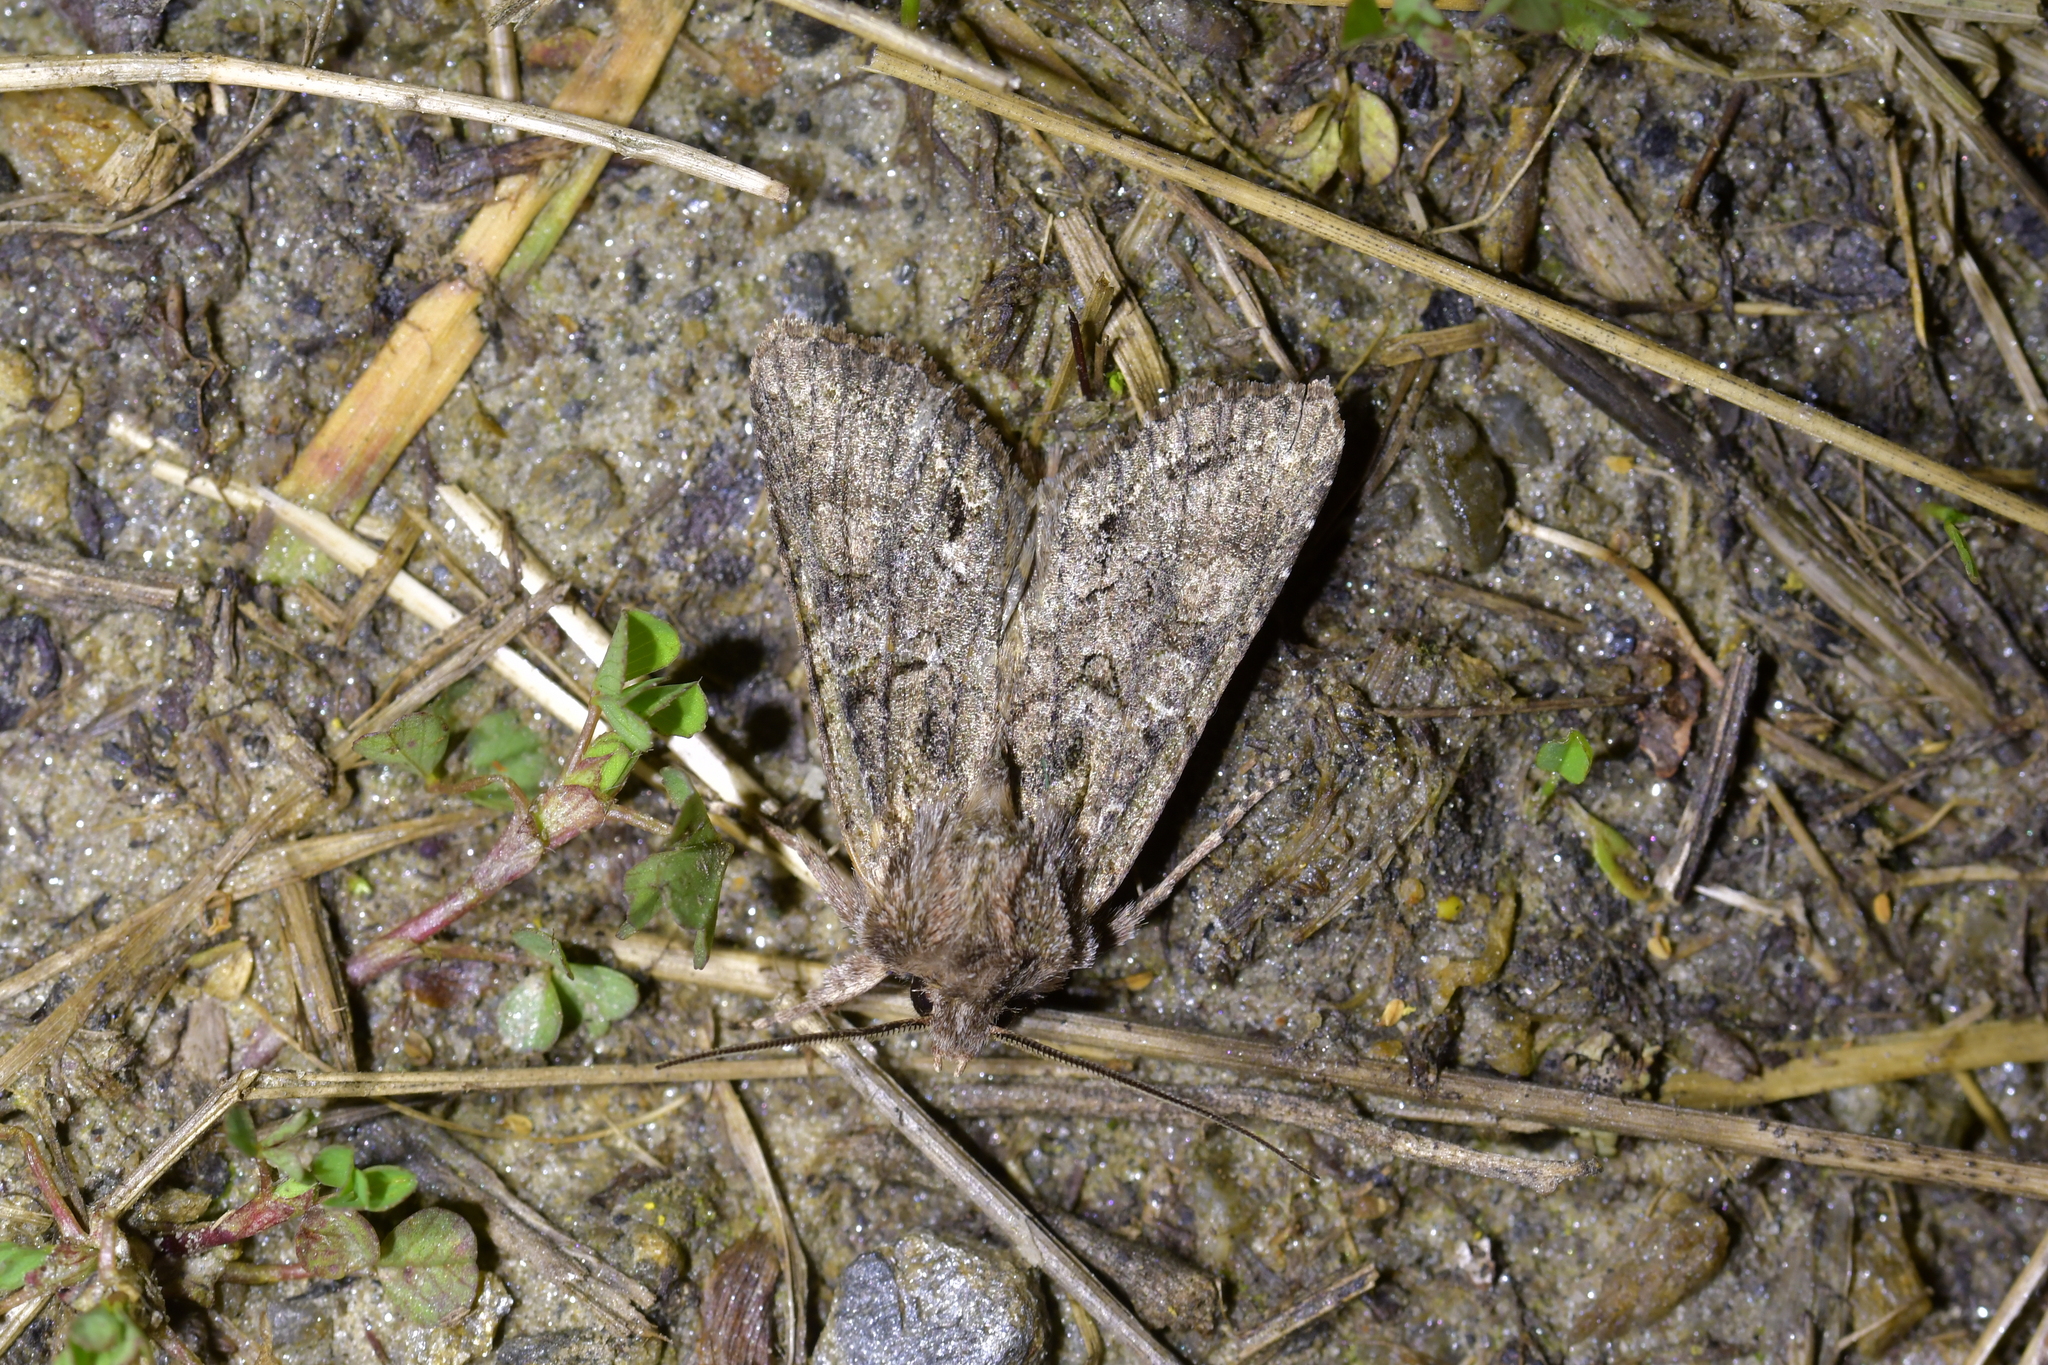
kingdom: Animalia
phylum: Arthropoda
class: Insecta
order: Lepidoptera
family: Noctuidae
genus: Ichneutica
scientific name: Ichneutica mutans
